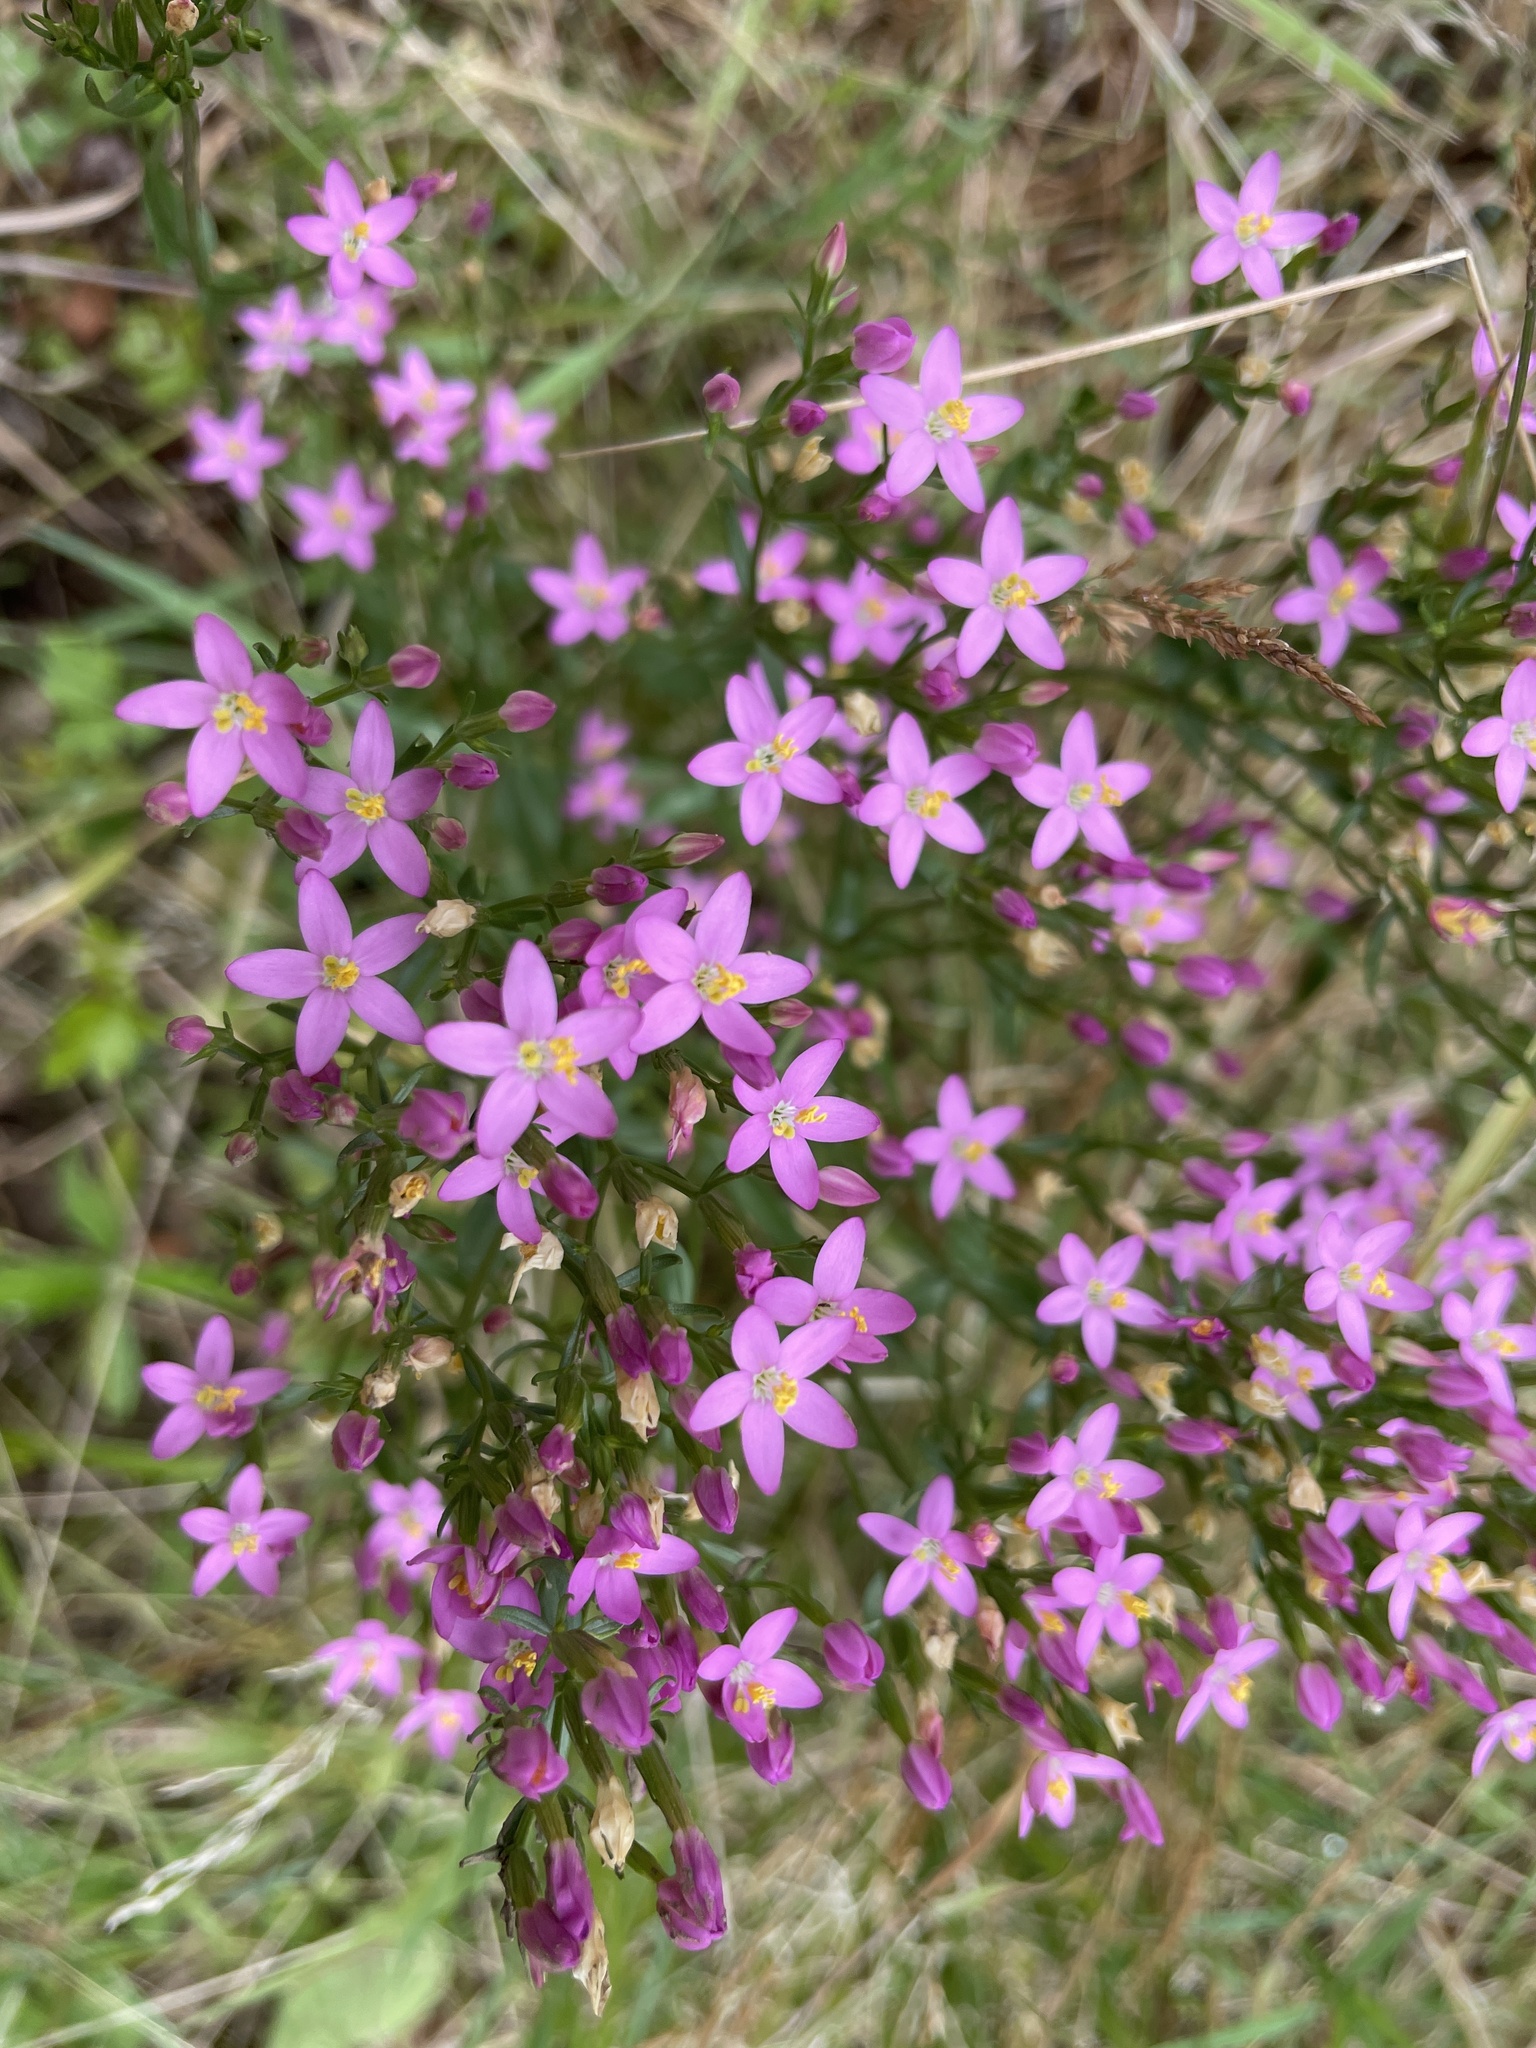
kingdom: Plantae
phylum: Tracheophyta
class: Magnoliopsida
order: Gentianales
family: Gentianaceae
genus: Centaurium
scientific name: Centaurium erythraea
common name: Common centaury
